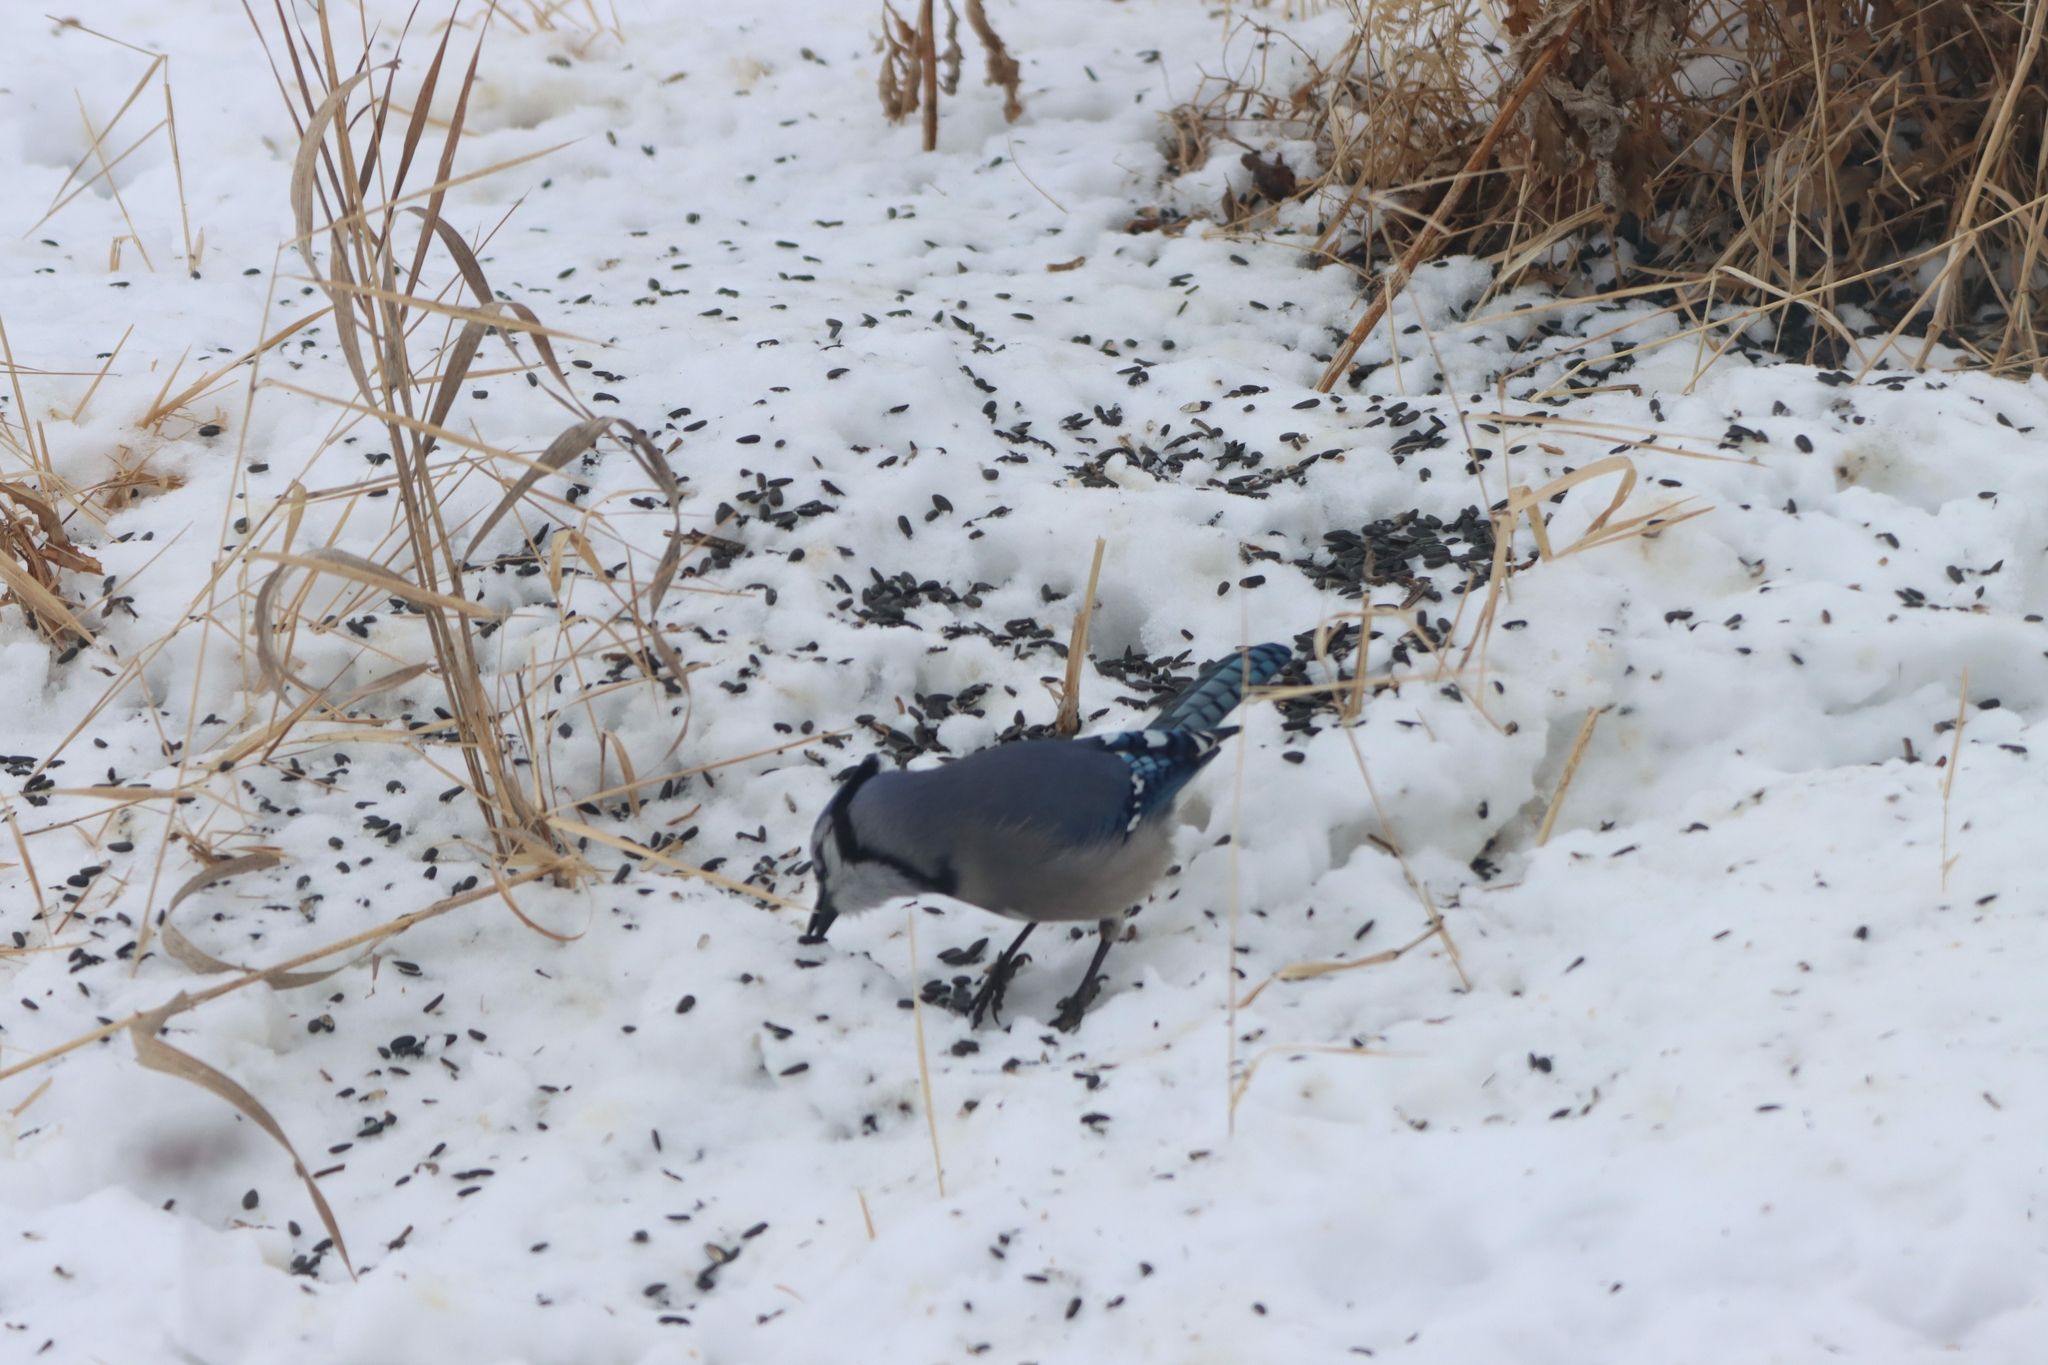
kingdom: Animalia
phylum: Chordata
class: Aves
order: Passeriformes
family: Corvidae
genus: Cyanocitta
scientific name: Cyanocitta cristata
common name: Blue jay
